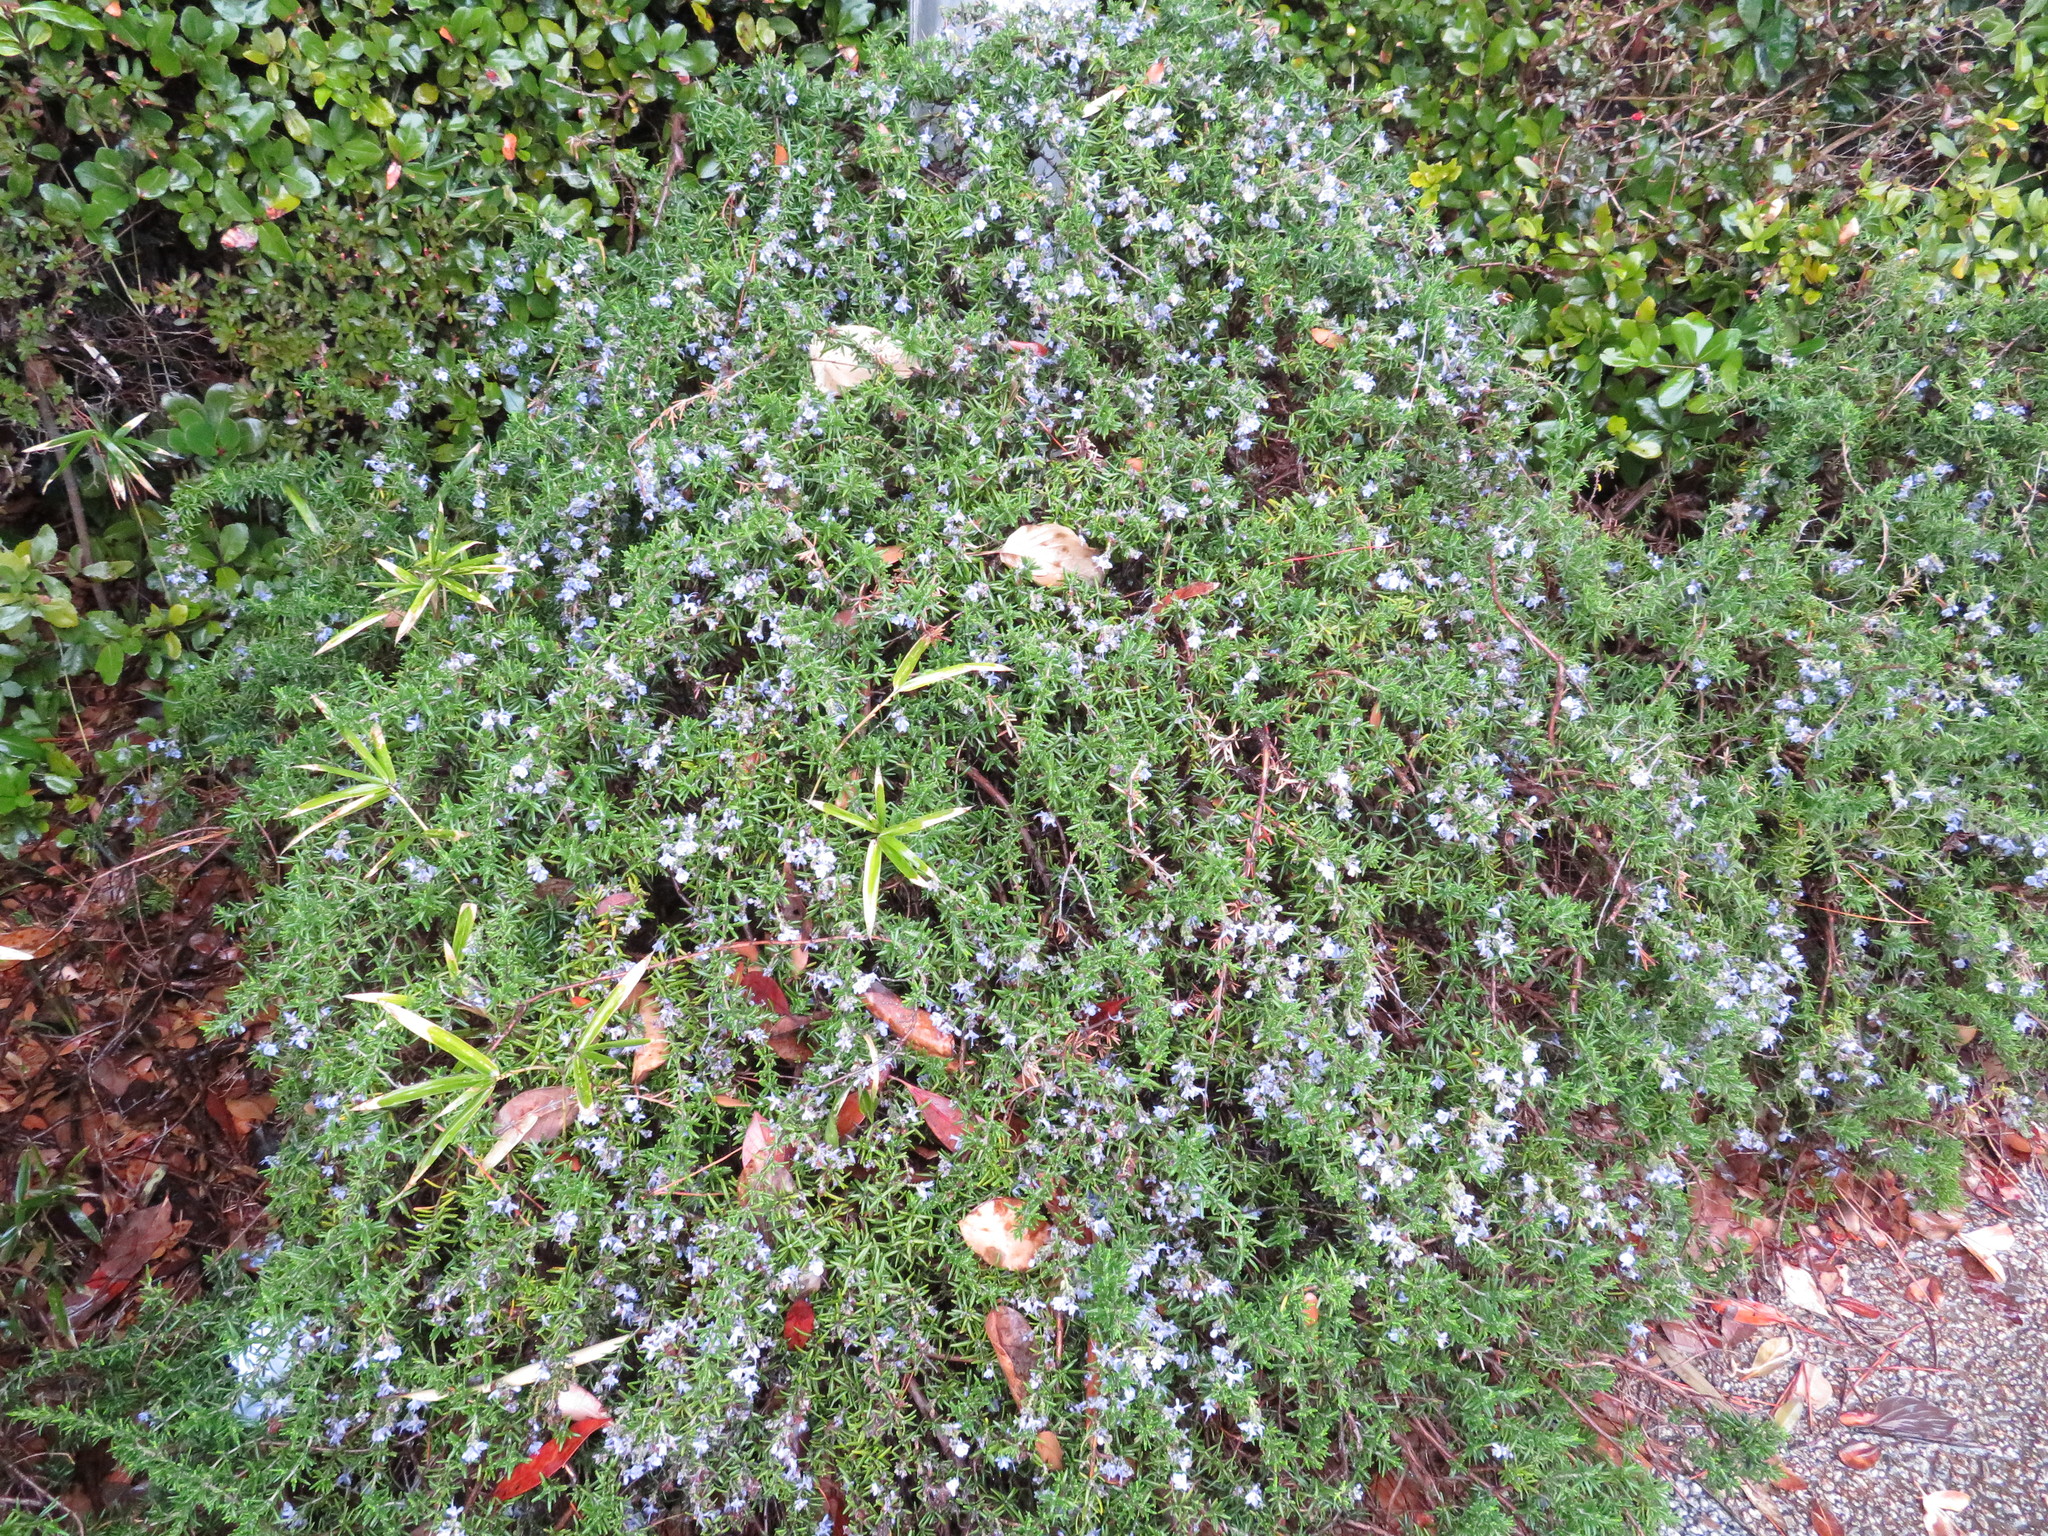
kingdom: Plantae
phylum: Tracheophyta
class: Magnoliopsida
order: Lamiales
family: Lamiaceae
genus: Salvia
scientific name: Salvia rosmarinus
